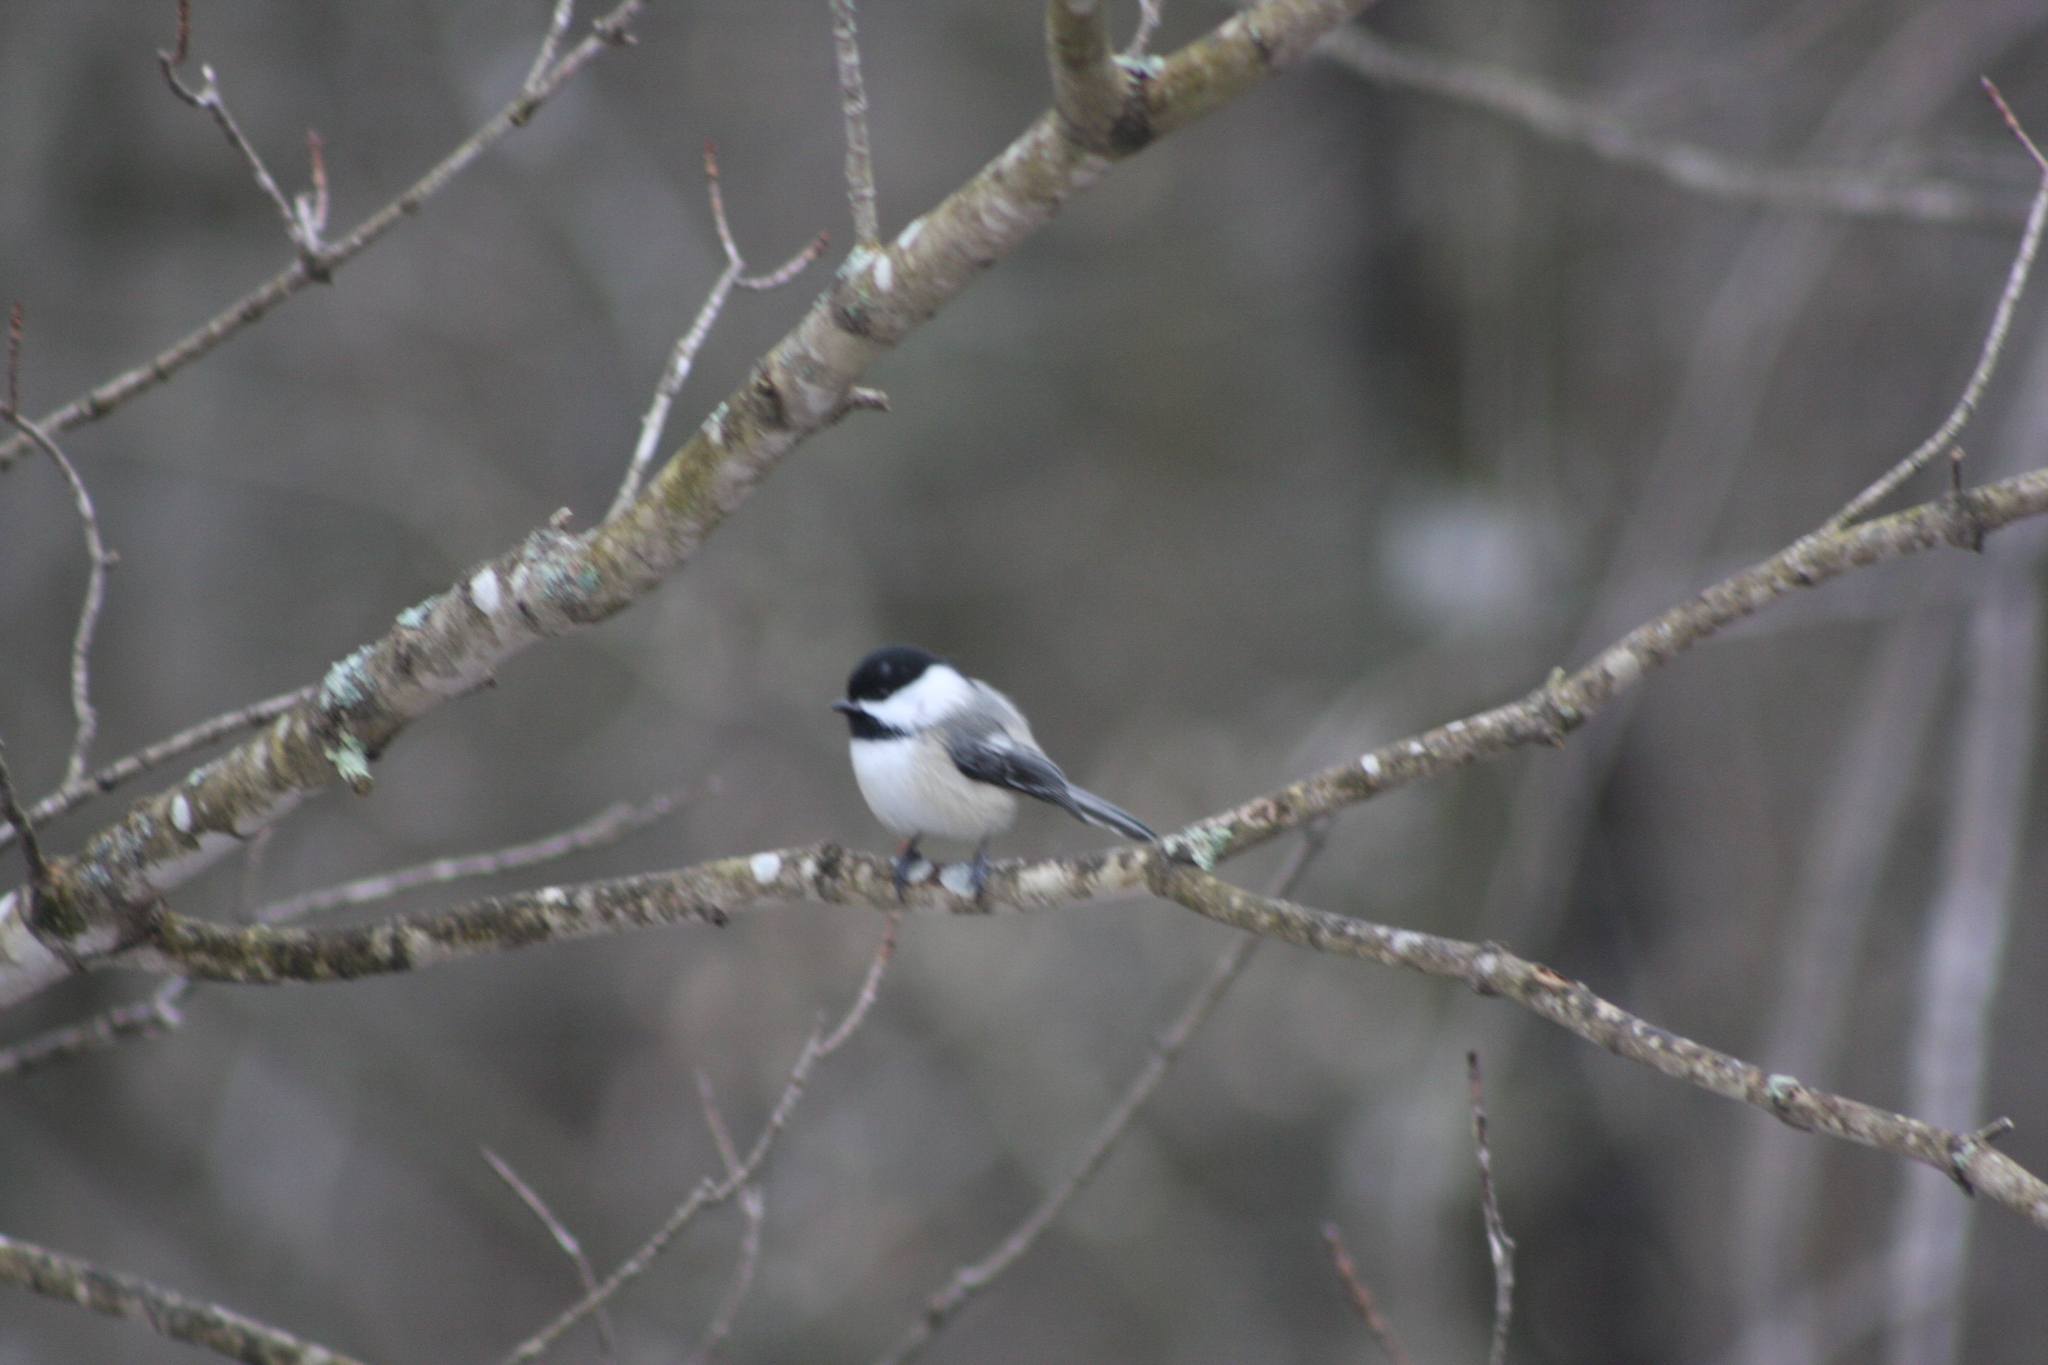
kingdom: Animalia
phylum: Chordata
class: Aves
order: Passeriformes
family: Paridae
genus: Poecile
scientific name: Poecile atricapillus
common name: Black-capped chickadee
